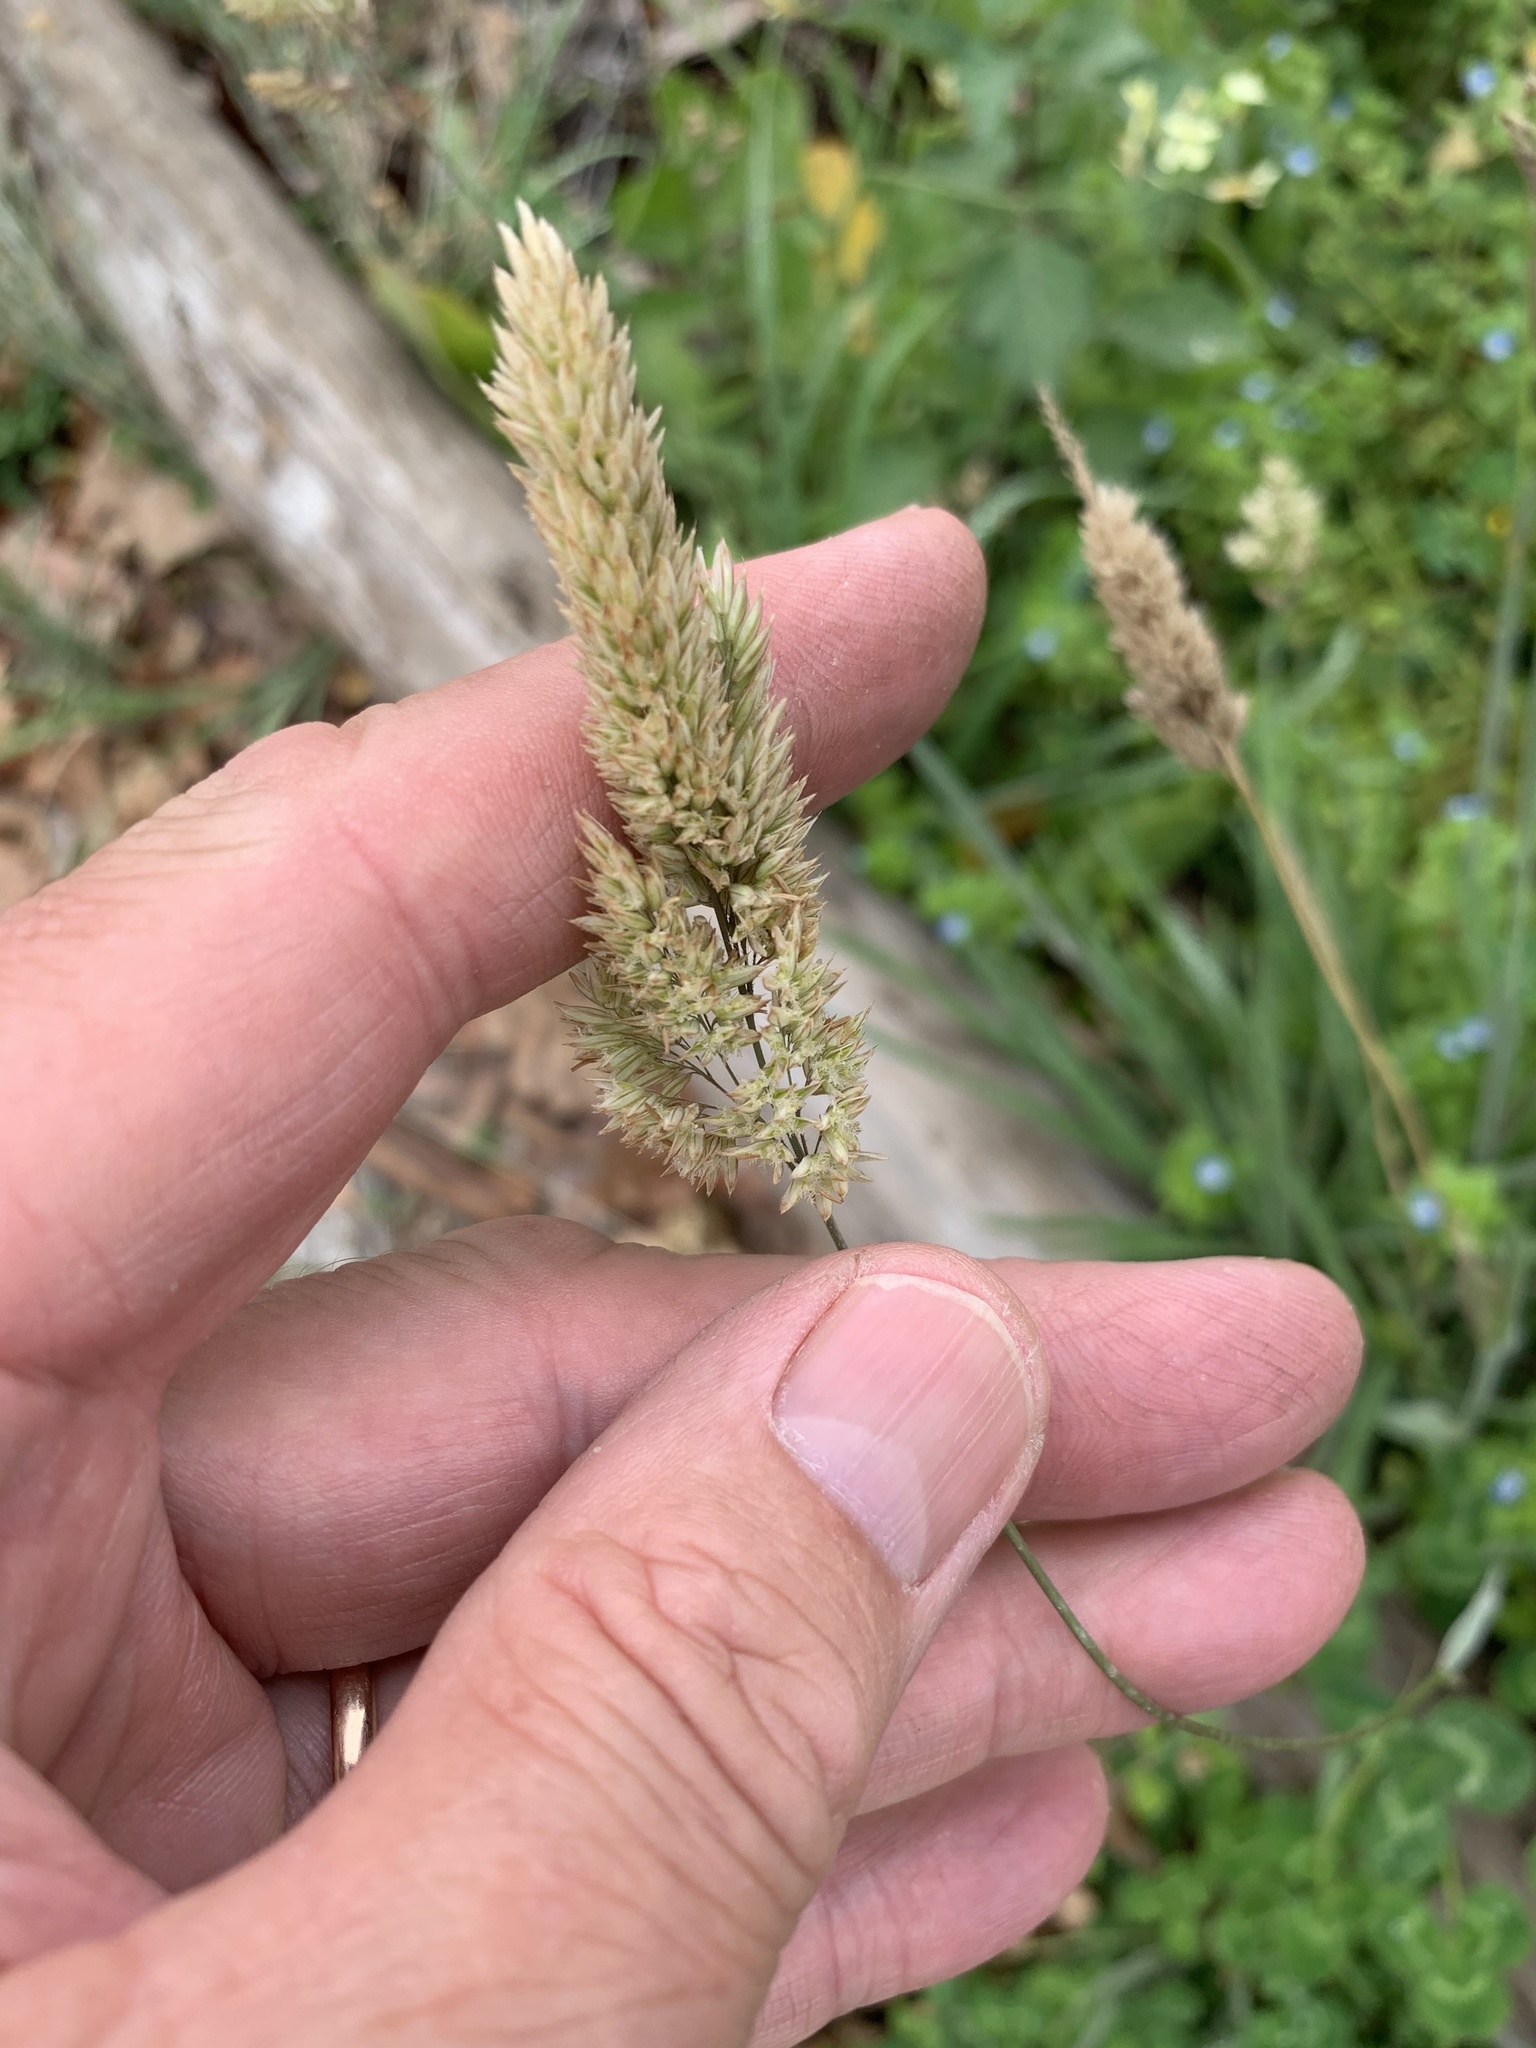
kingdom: Plantae
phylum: Tracheophyta
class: Liliopsida
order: Poales
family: Poaceae
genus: Holcus
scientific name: Holcus lanatus
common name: Yorkshire-fog
